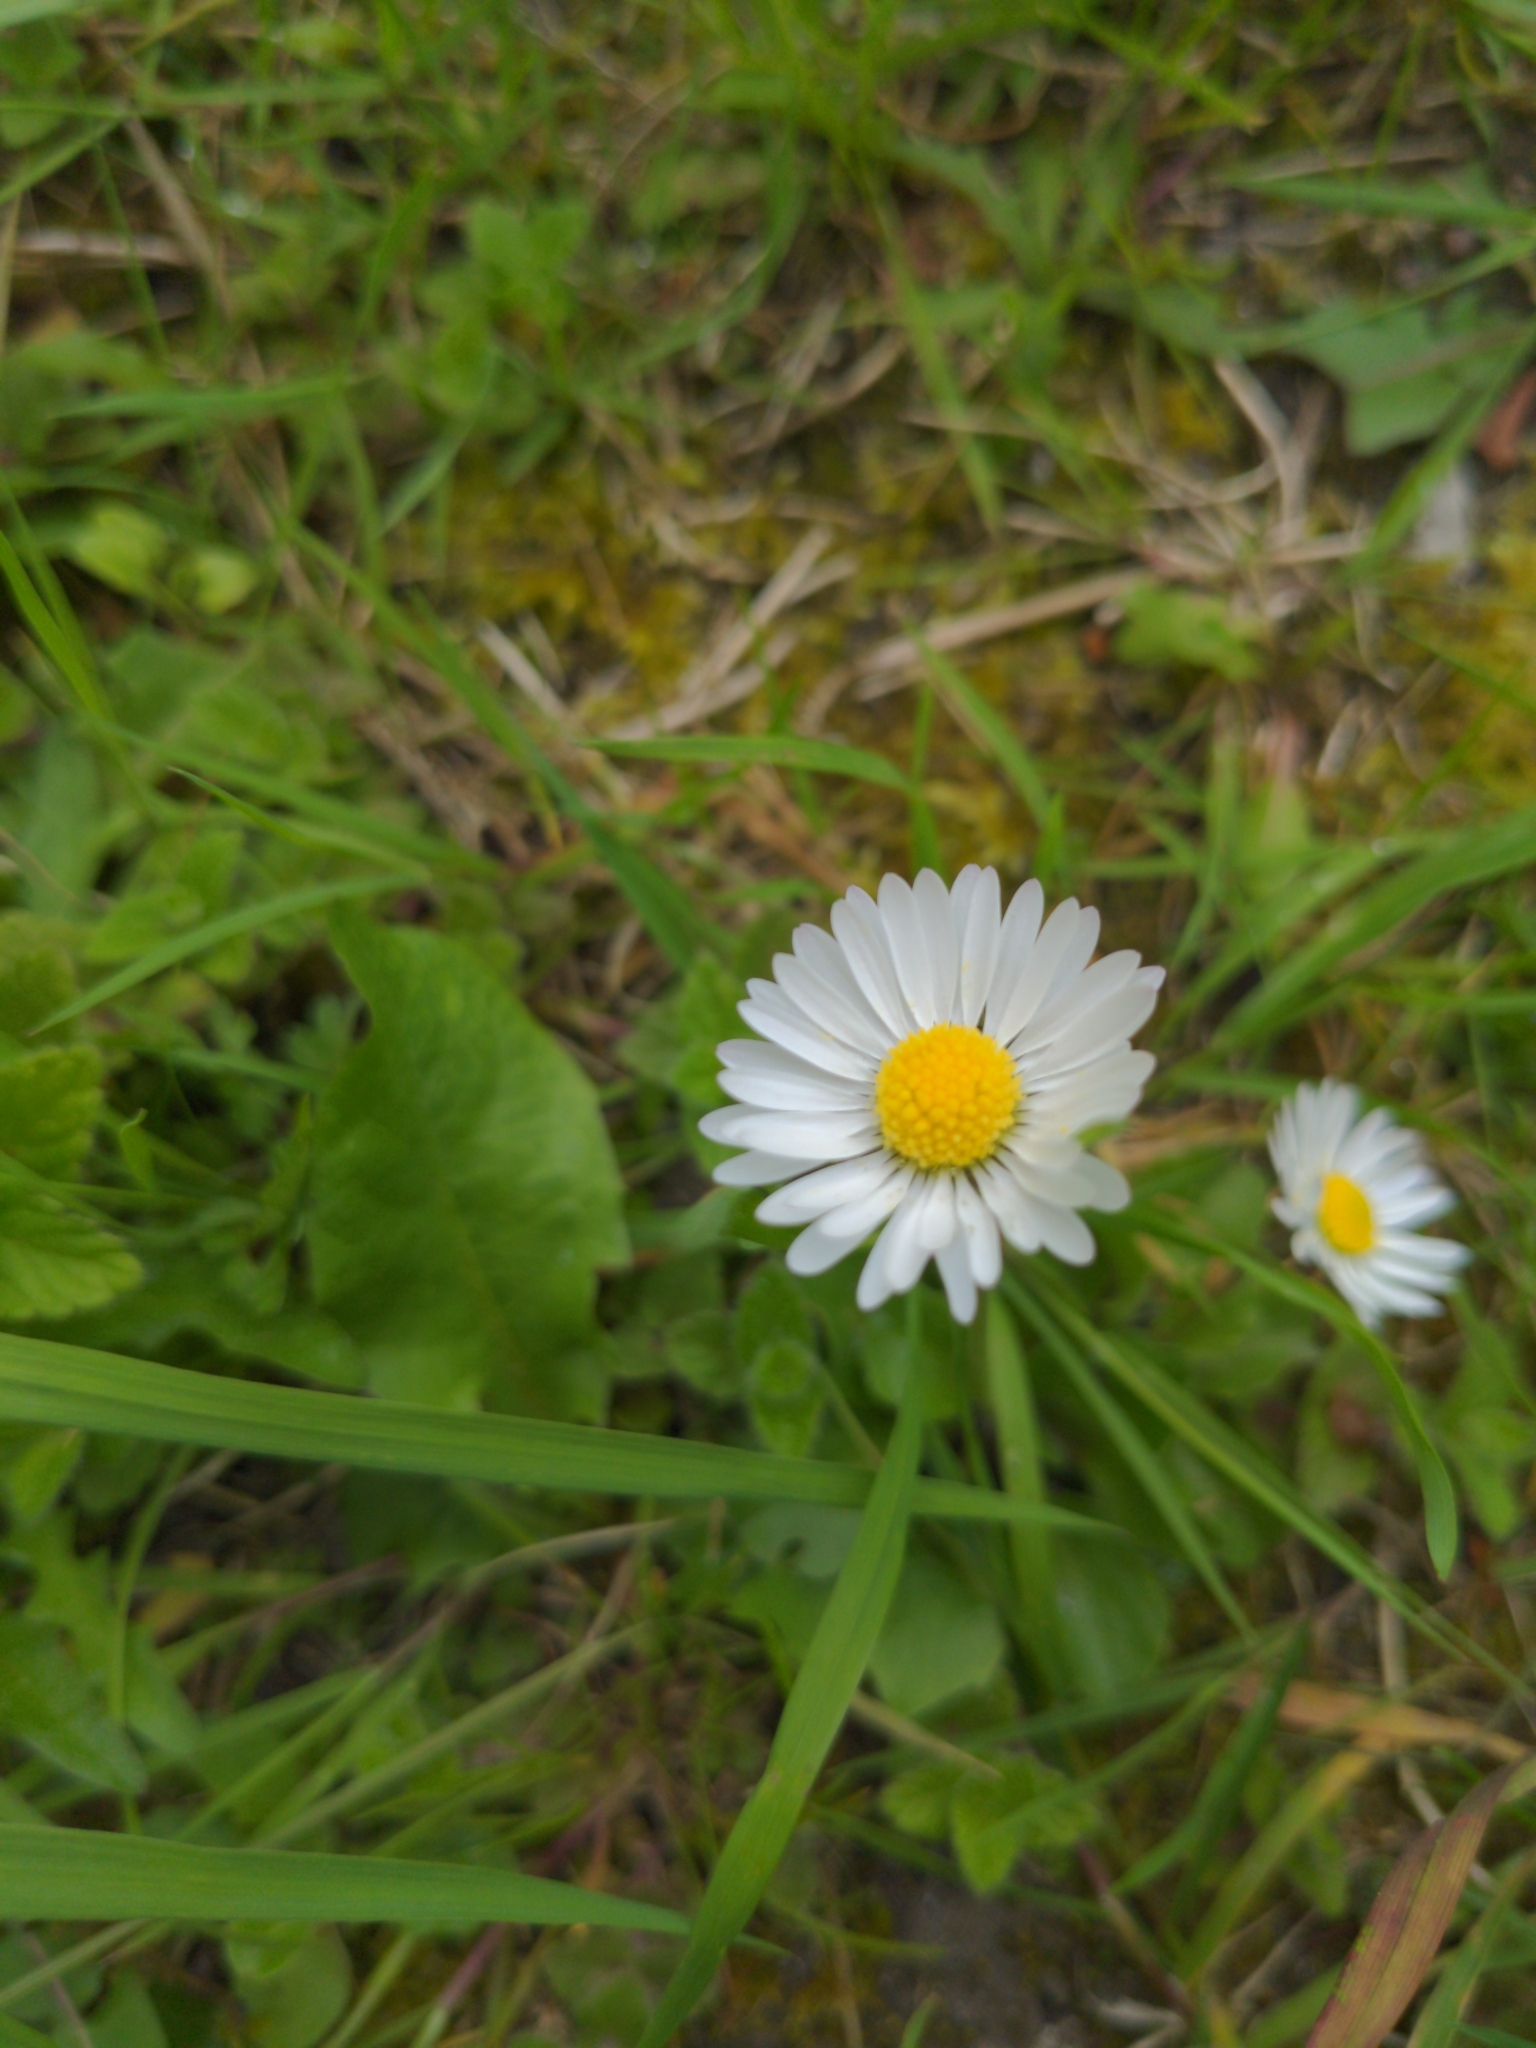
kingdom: Plantae
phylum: Tracheophyta
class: Magnoliopsida
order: Asterales
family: Asteraceae
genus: Bellis
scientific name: Bellis perennis
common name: Lawndaisy
